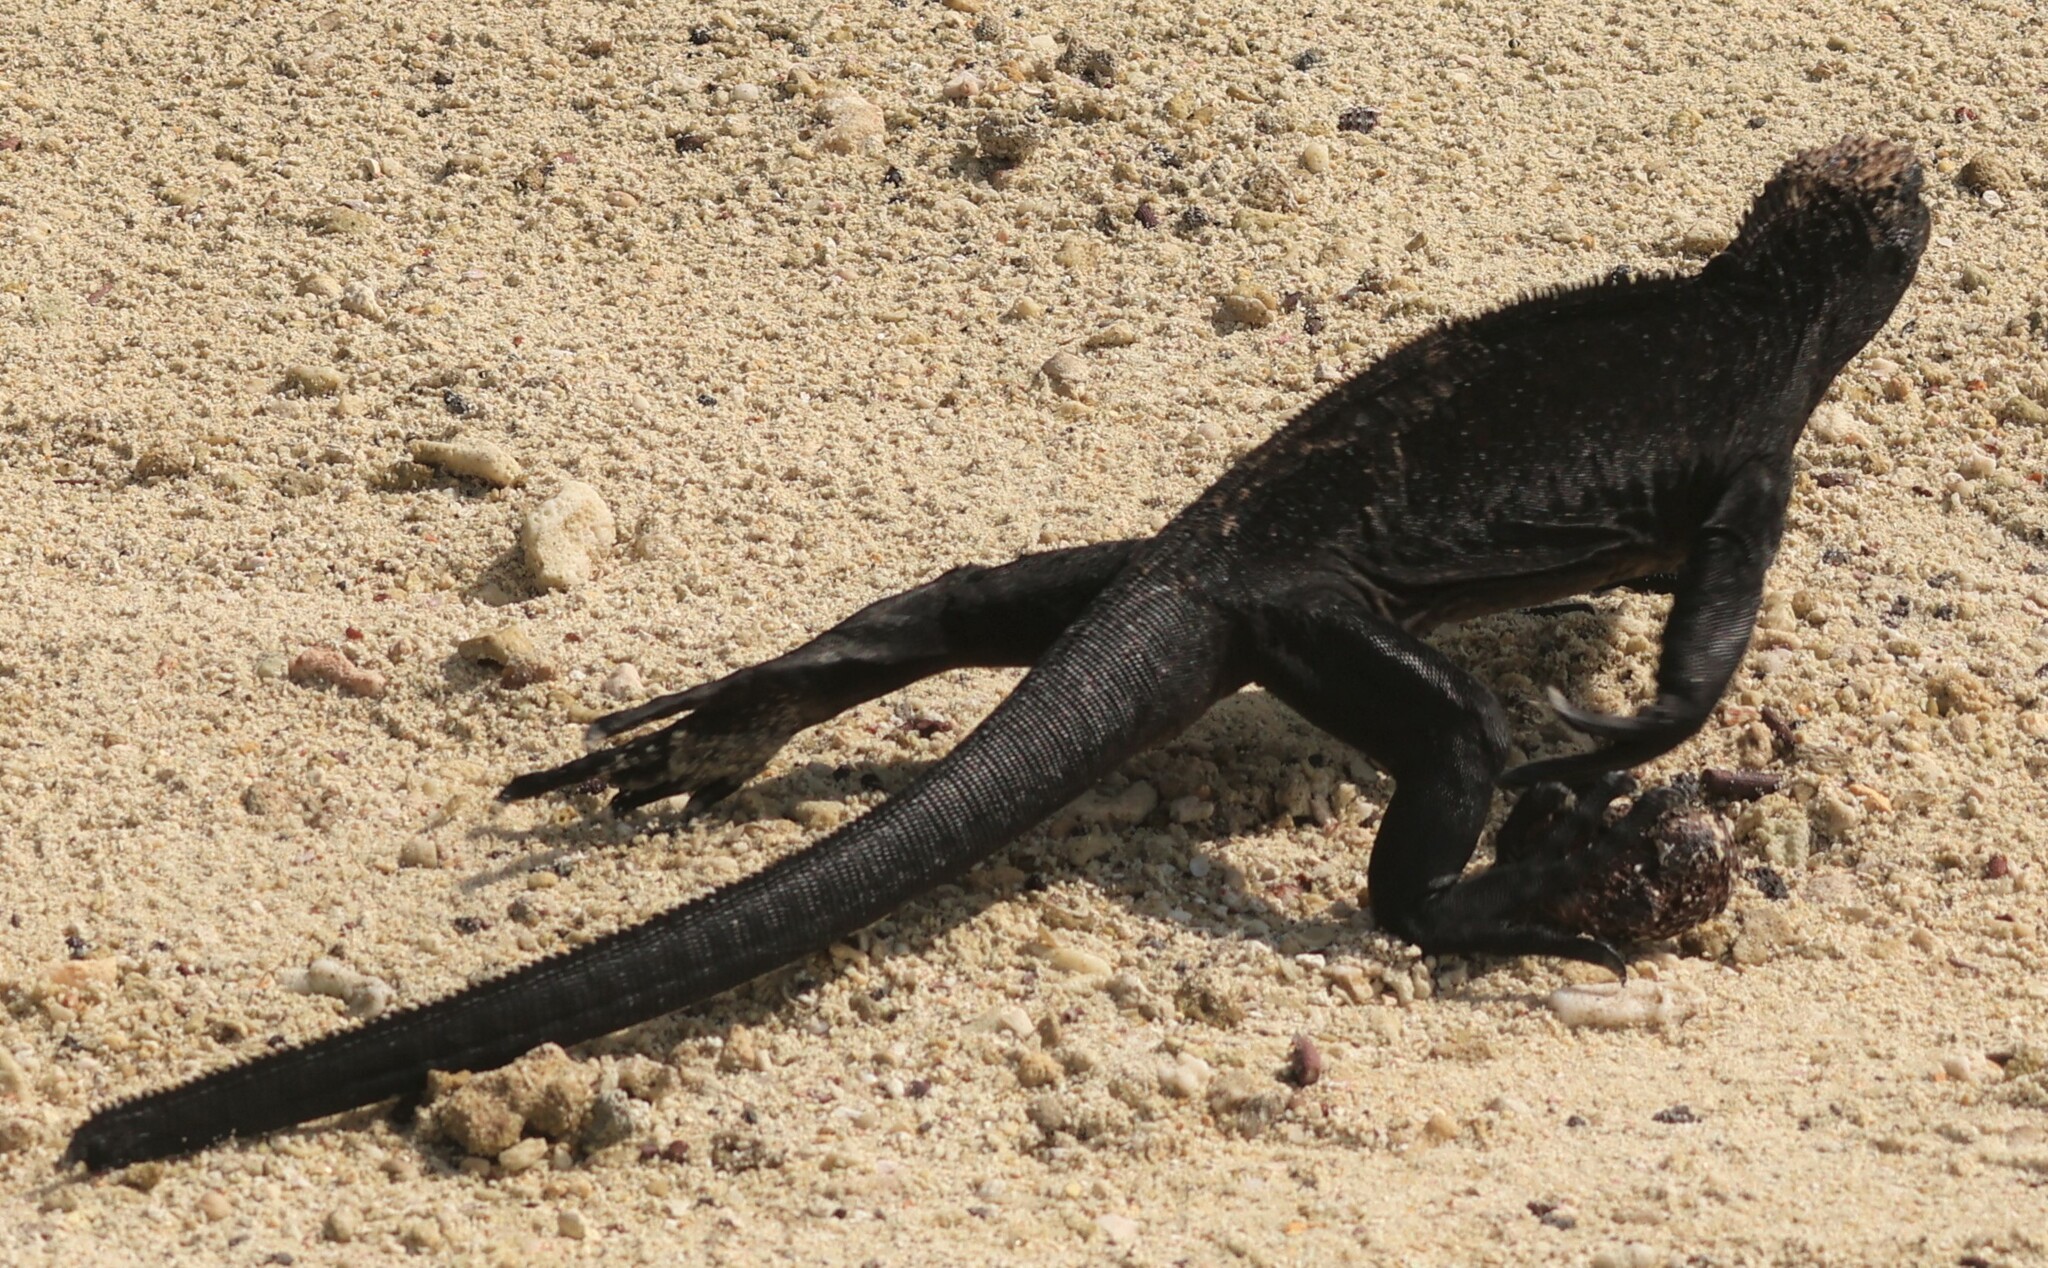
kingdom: Animalia
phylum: Chordata
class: Squamata
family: Iguanidae
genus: Amblyrhynchus
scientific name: Amblyrhynchus cristatus
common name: Marine iguana
